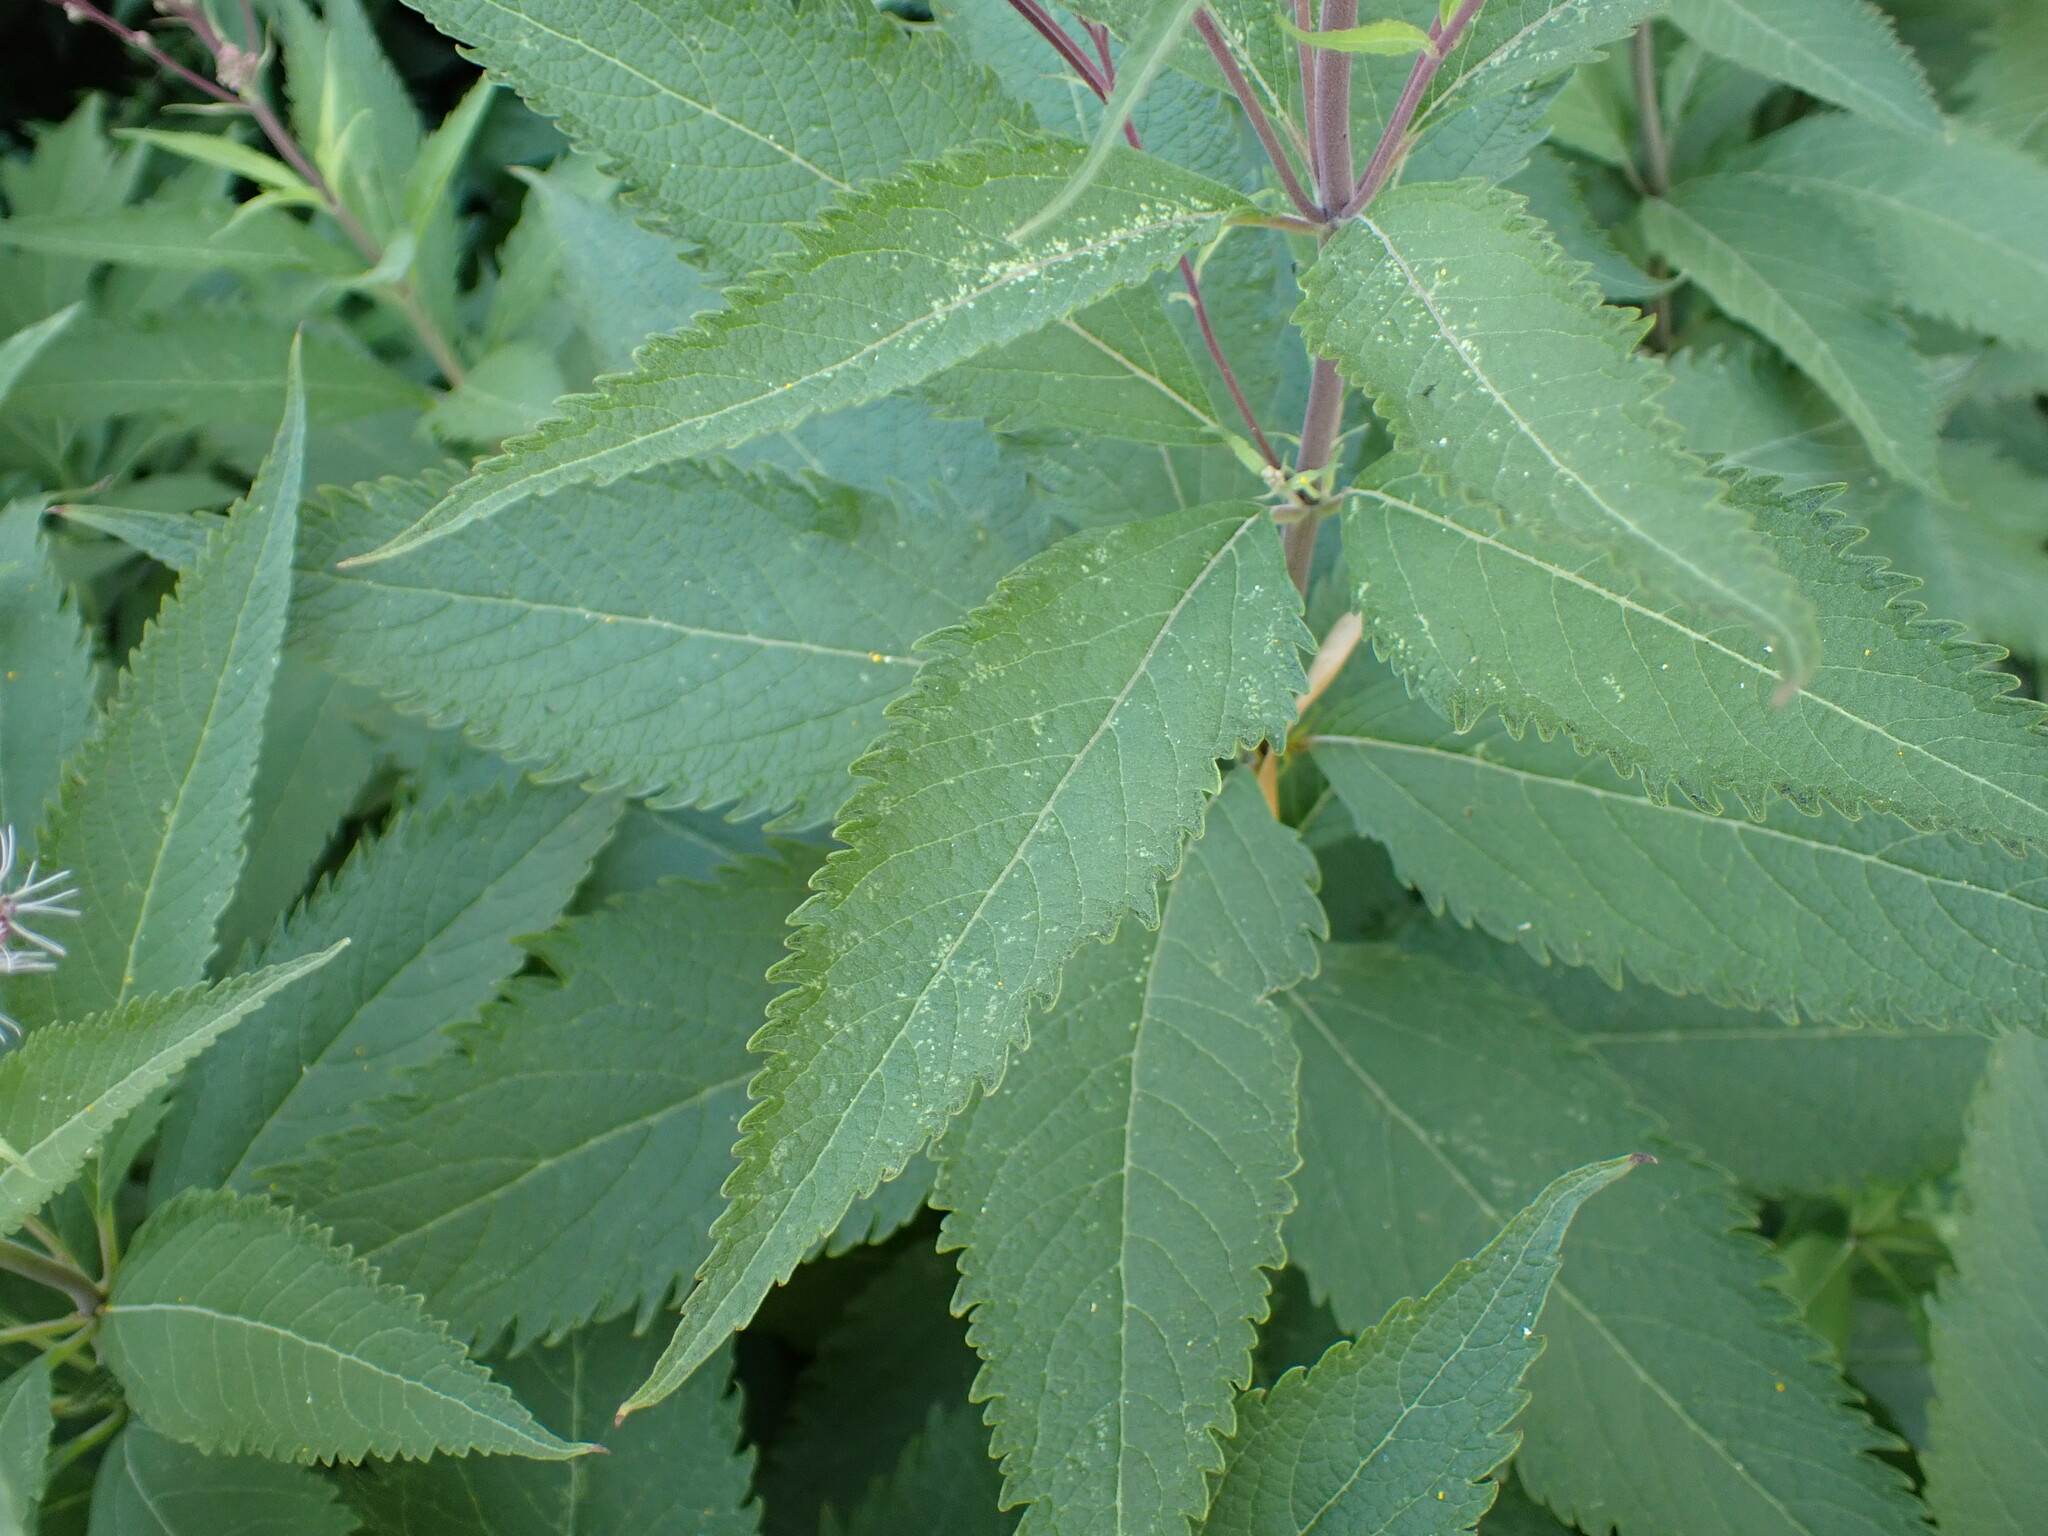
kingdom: Plantae
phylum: Tracheophyta
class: Magnoliopsida
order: Asterales
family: Asteraceae
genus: Eutrochium
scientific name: Eutrochium maculatum
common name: Spotted joe pye weed
